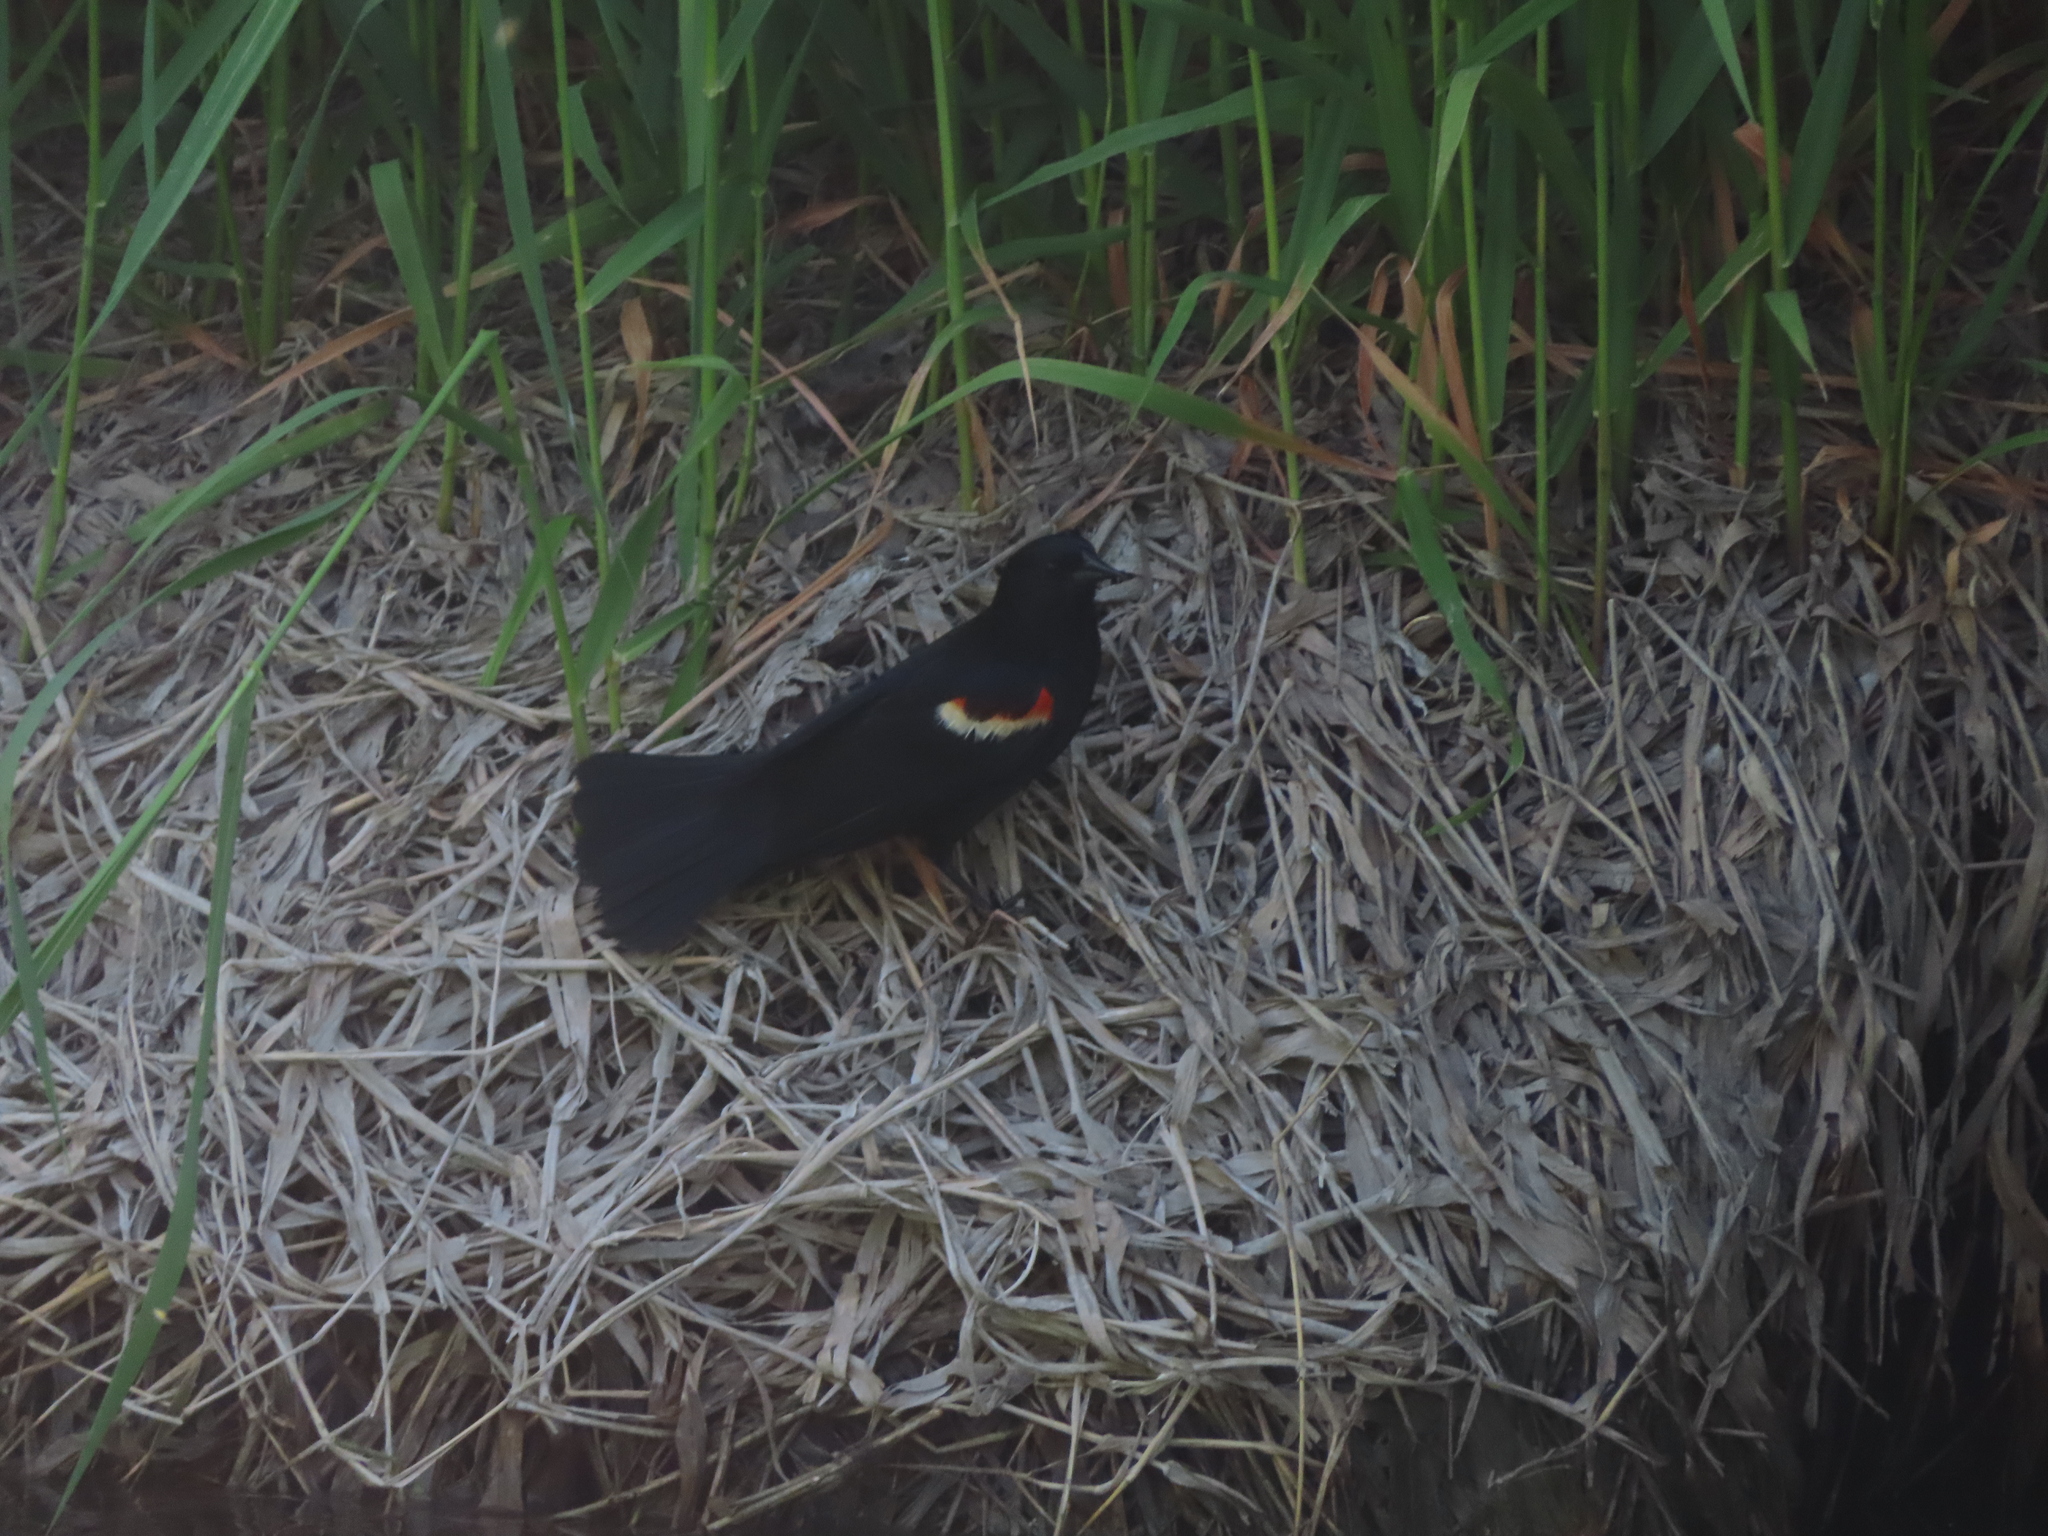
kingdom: Animalia
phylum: Chordata
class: Aves
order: Passeriformes
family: Icteridae
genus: Agelaius
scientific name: Agelaius phoeniceus
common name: Red-winged blackbird
